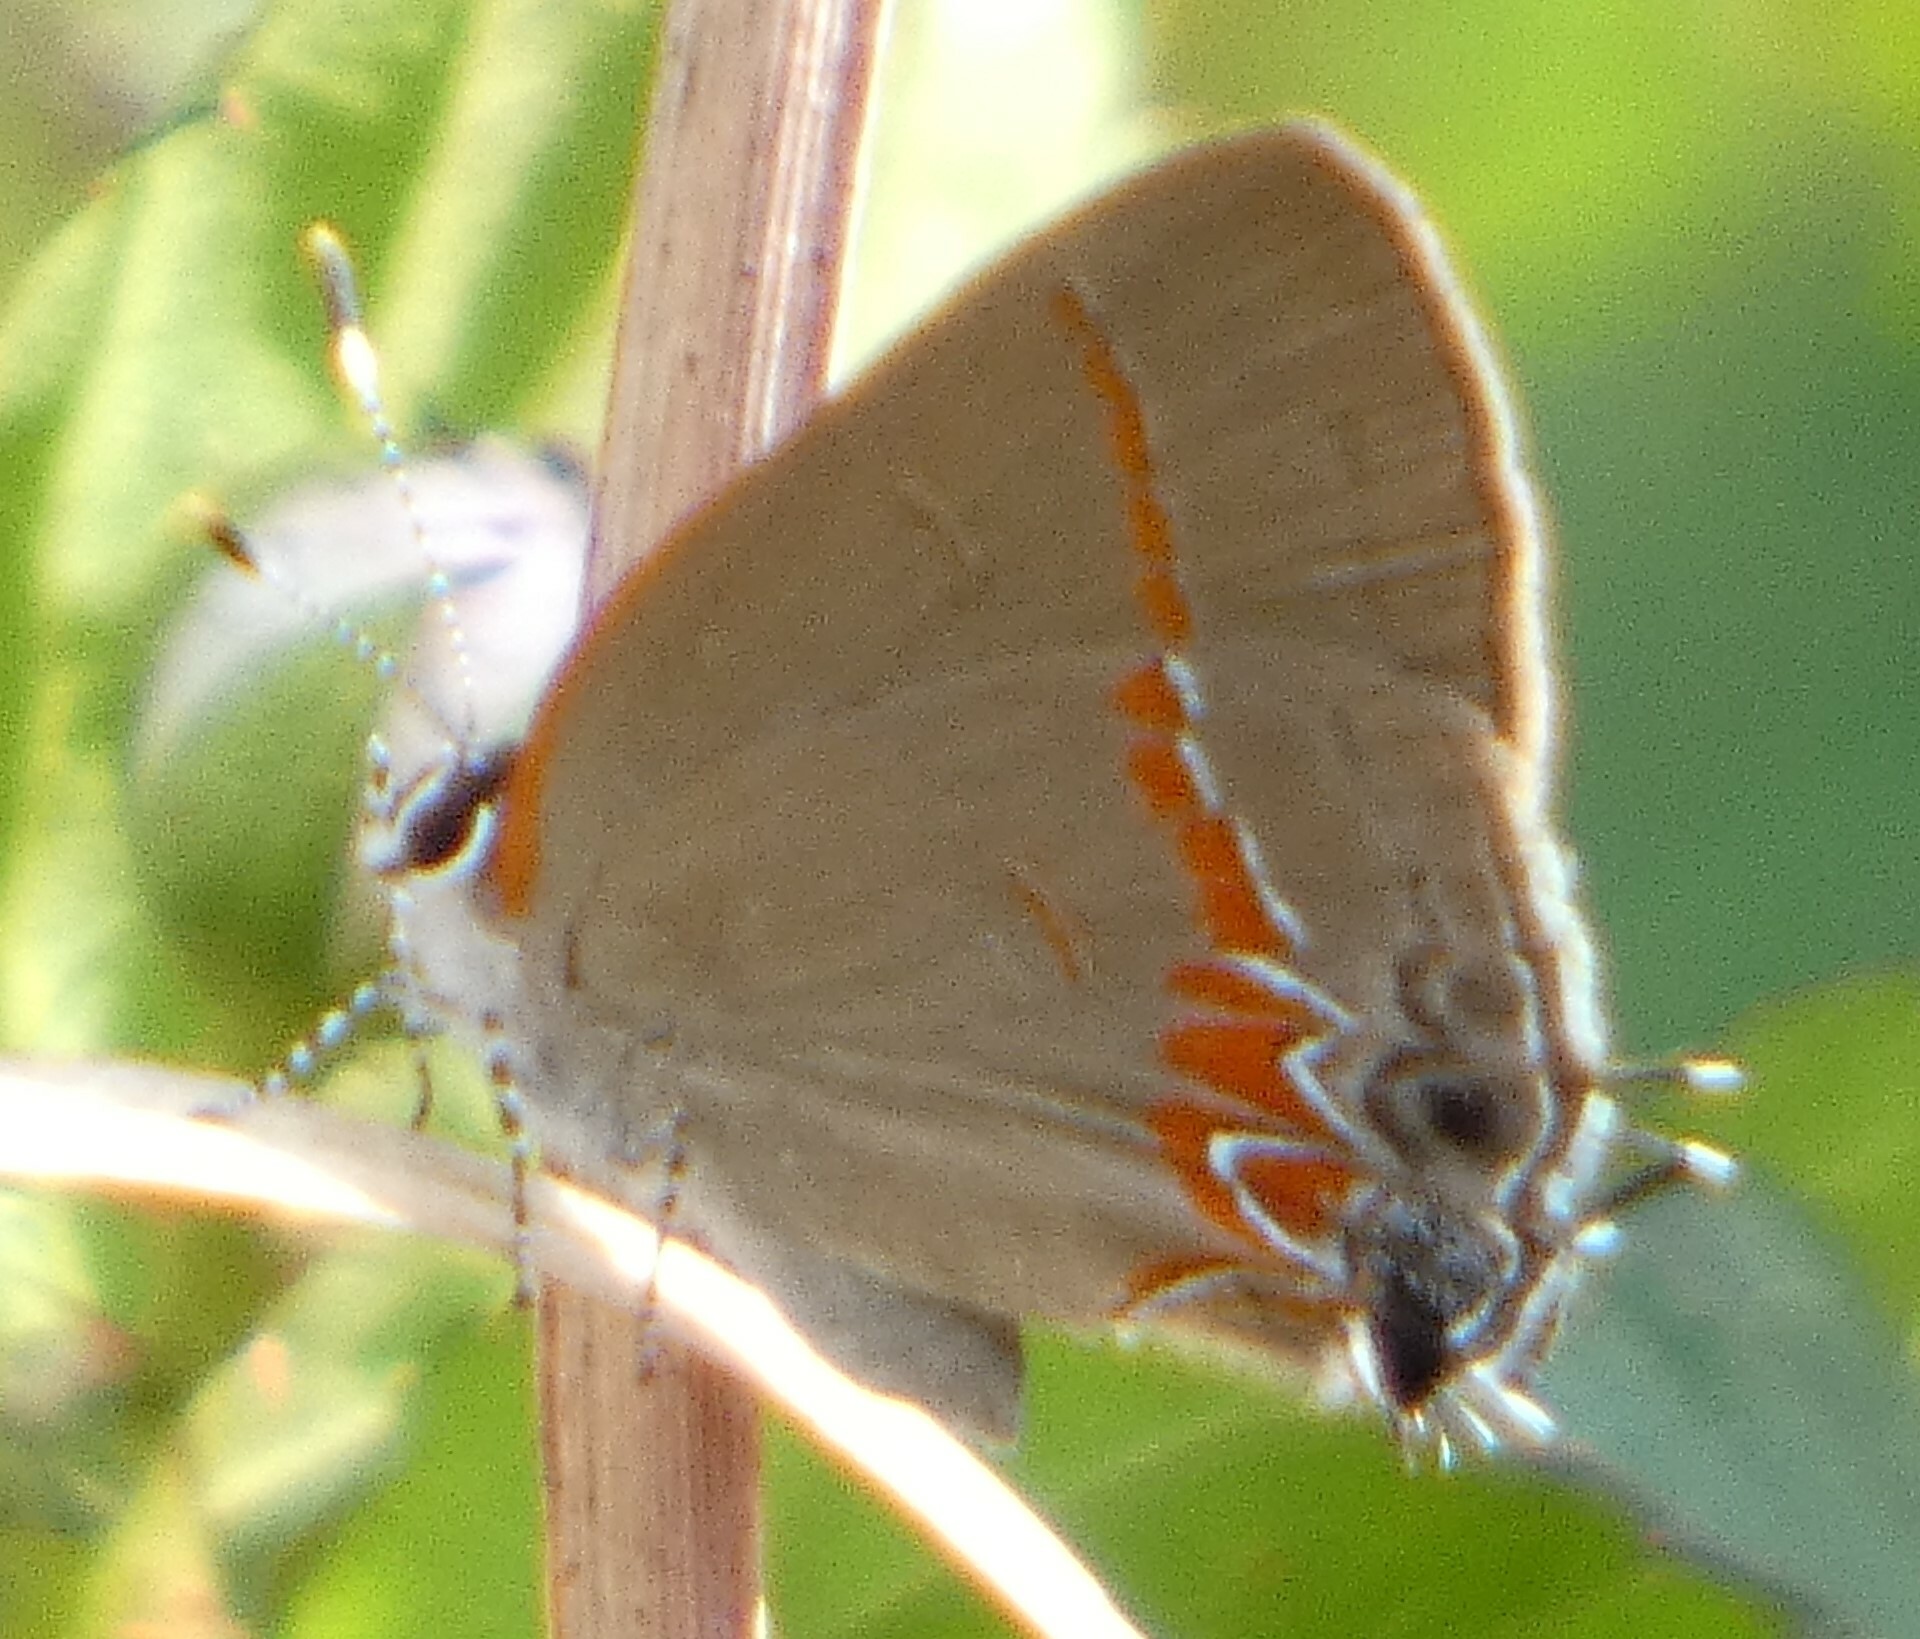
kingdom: Animalia
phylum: Arthropoda
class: Insecta
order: Lepidoptera
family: Lycaenidae
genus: Calycopis
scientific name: Calycopis cecrops
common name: Red-banded hairstreak
